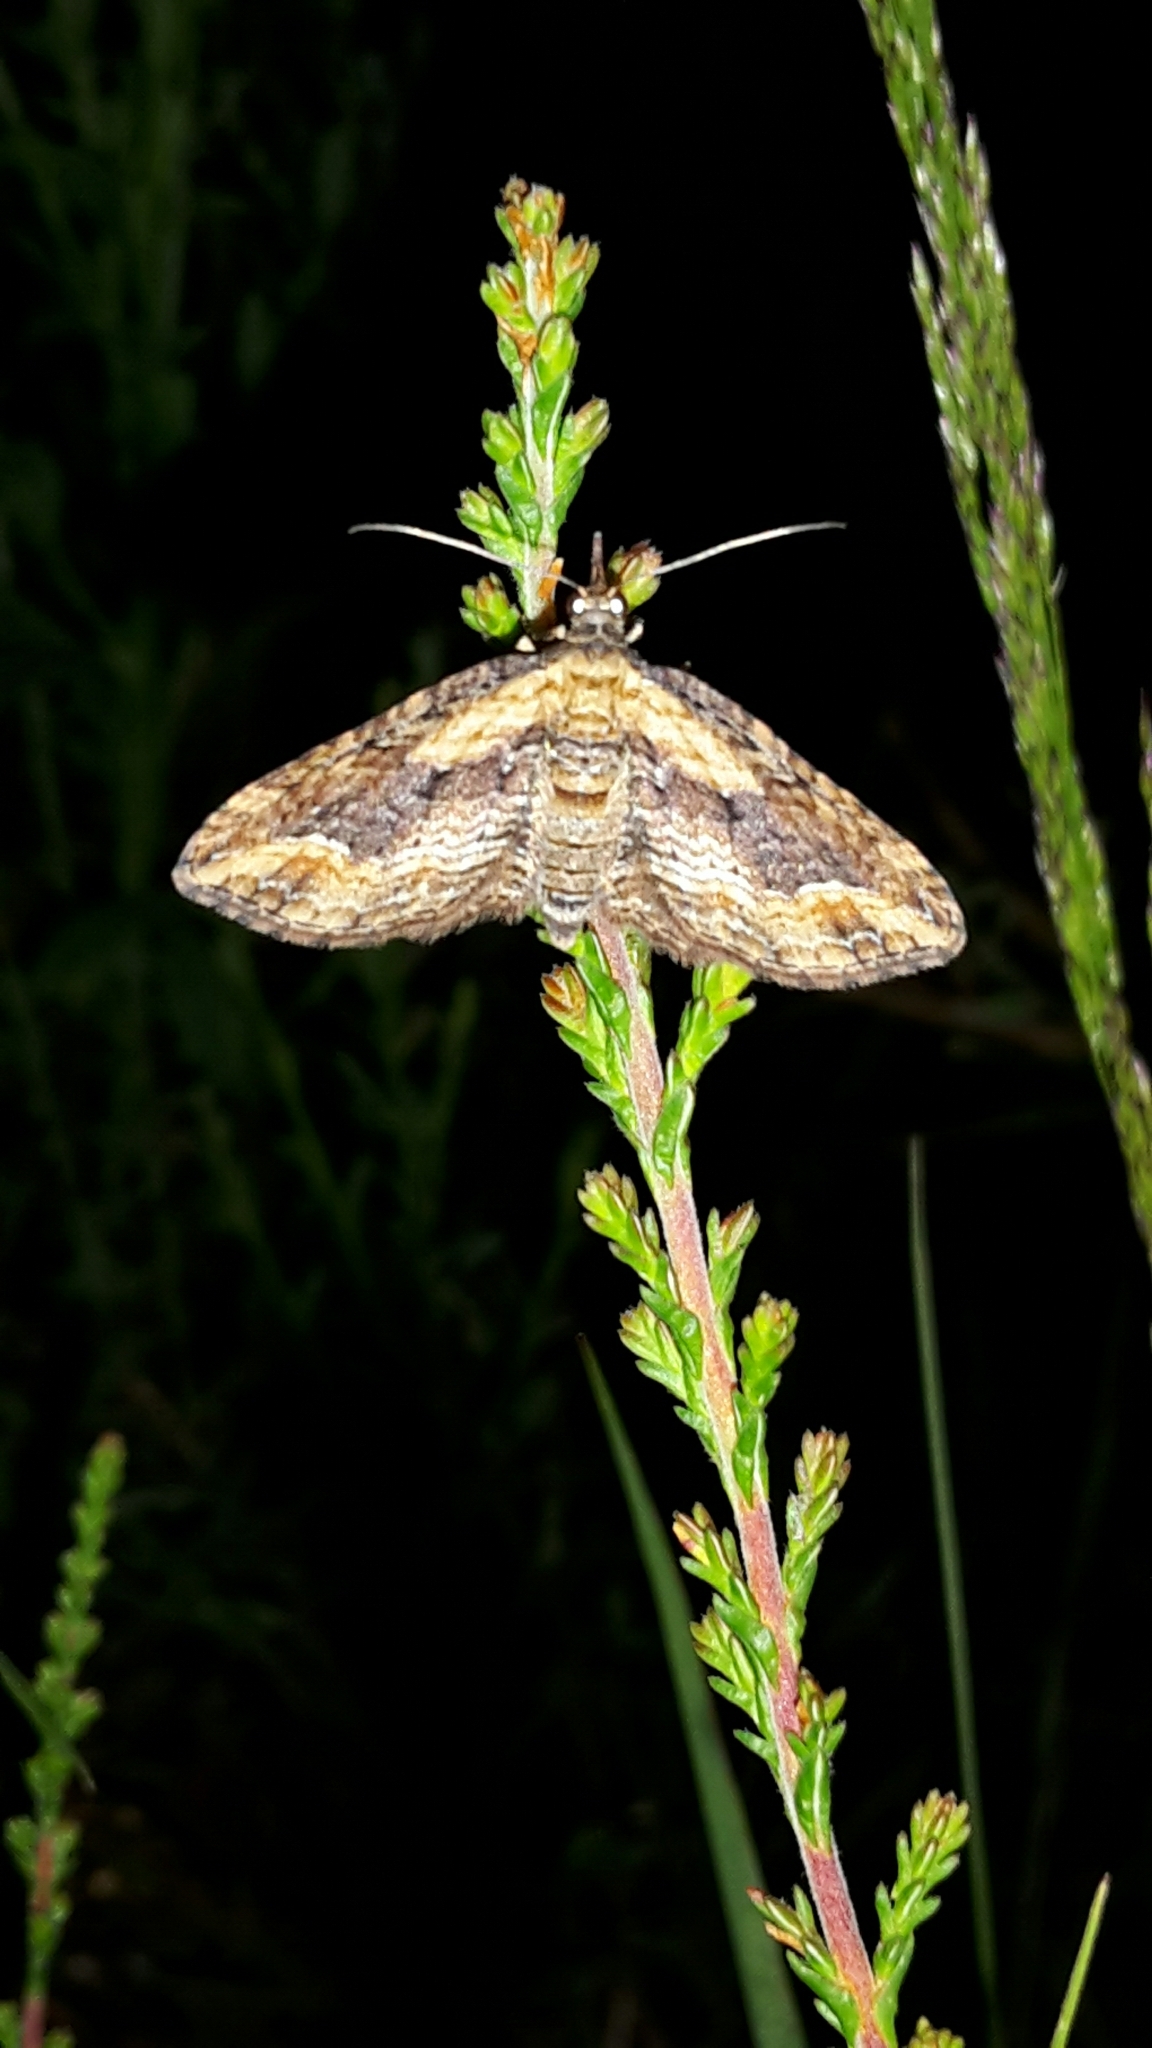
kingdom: Animalia
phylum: Arthropoda
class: Insecta
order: Lepidoptera
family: Geometridae
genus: Chloroclystis
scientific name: Chloroclystis filata
